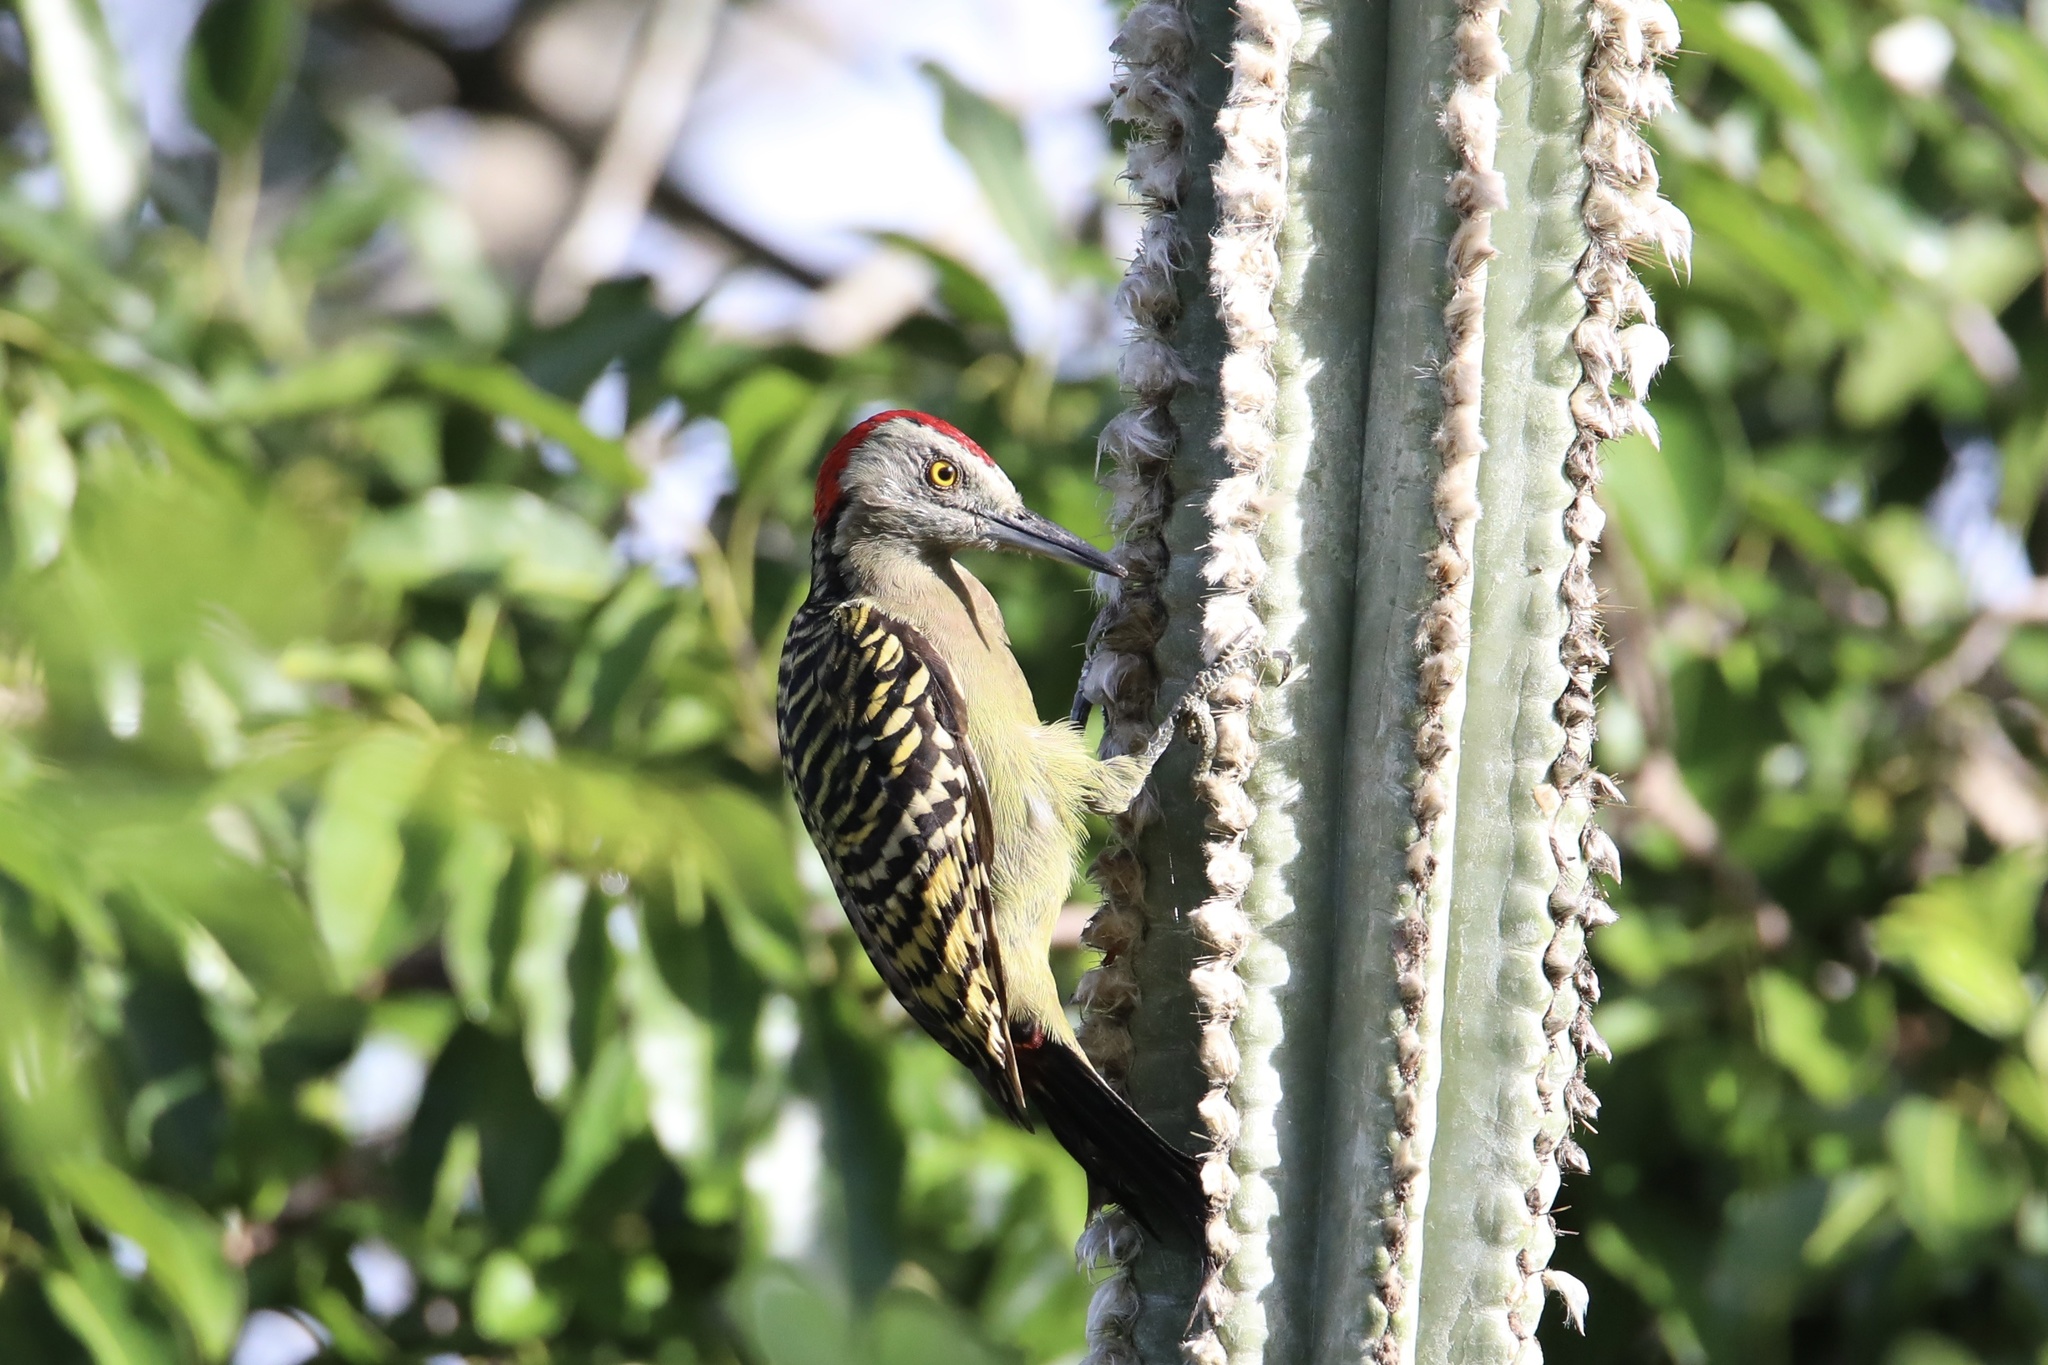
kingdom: Animalia
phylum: Chordata
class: Aves
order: Piciformes
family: Picidae
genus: Melanerpes
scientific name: Melanerpes striatus
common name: Hispaniolan woodpecker
